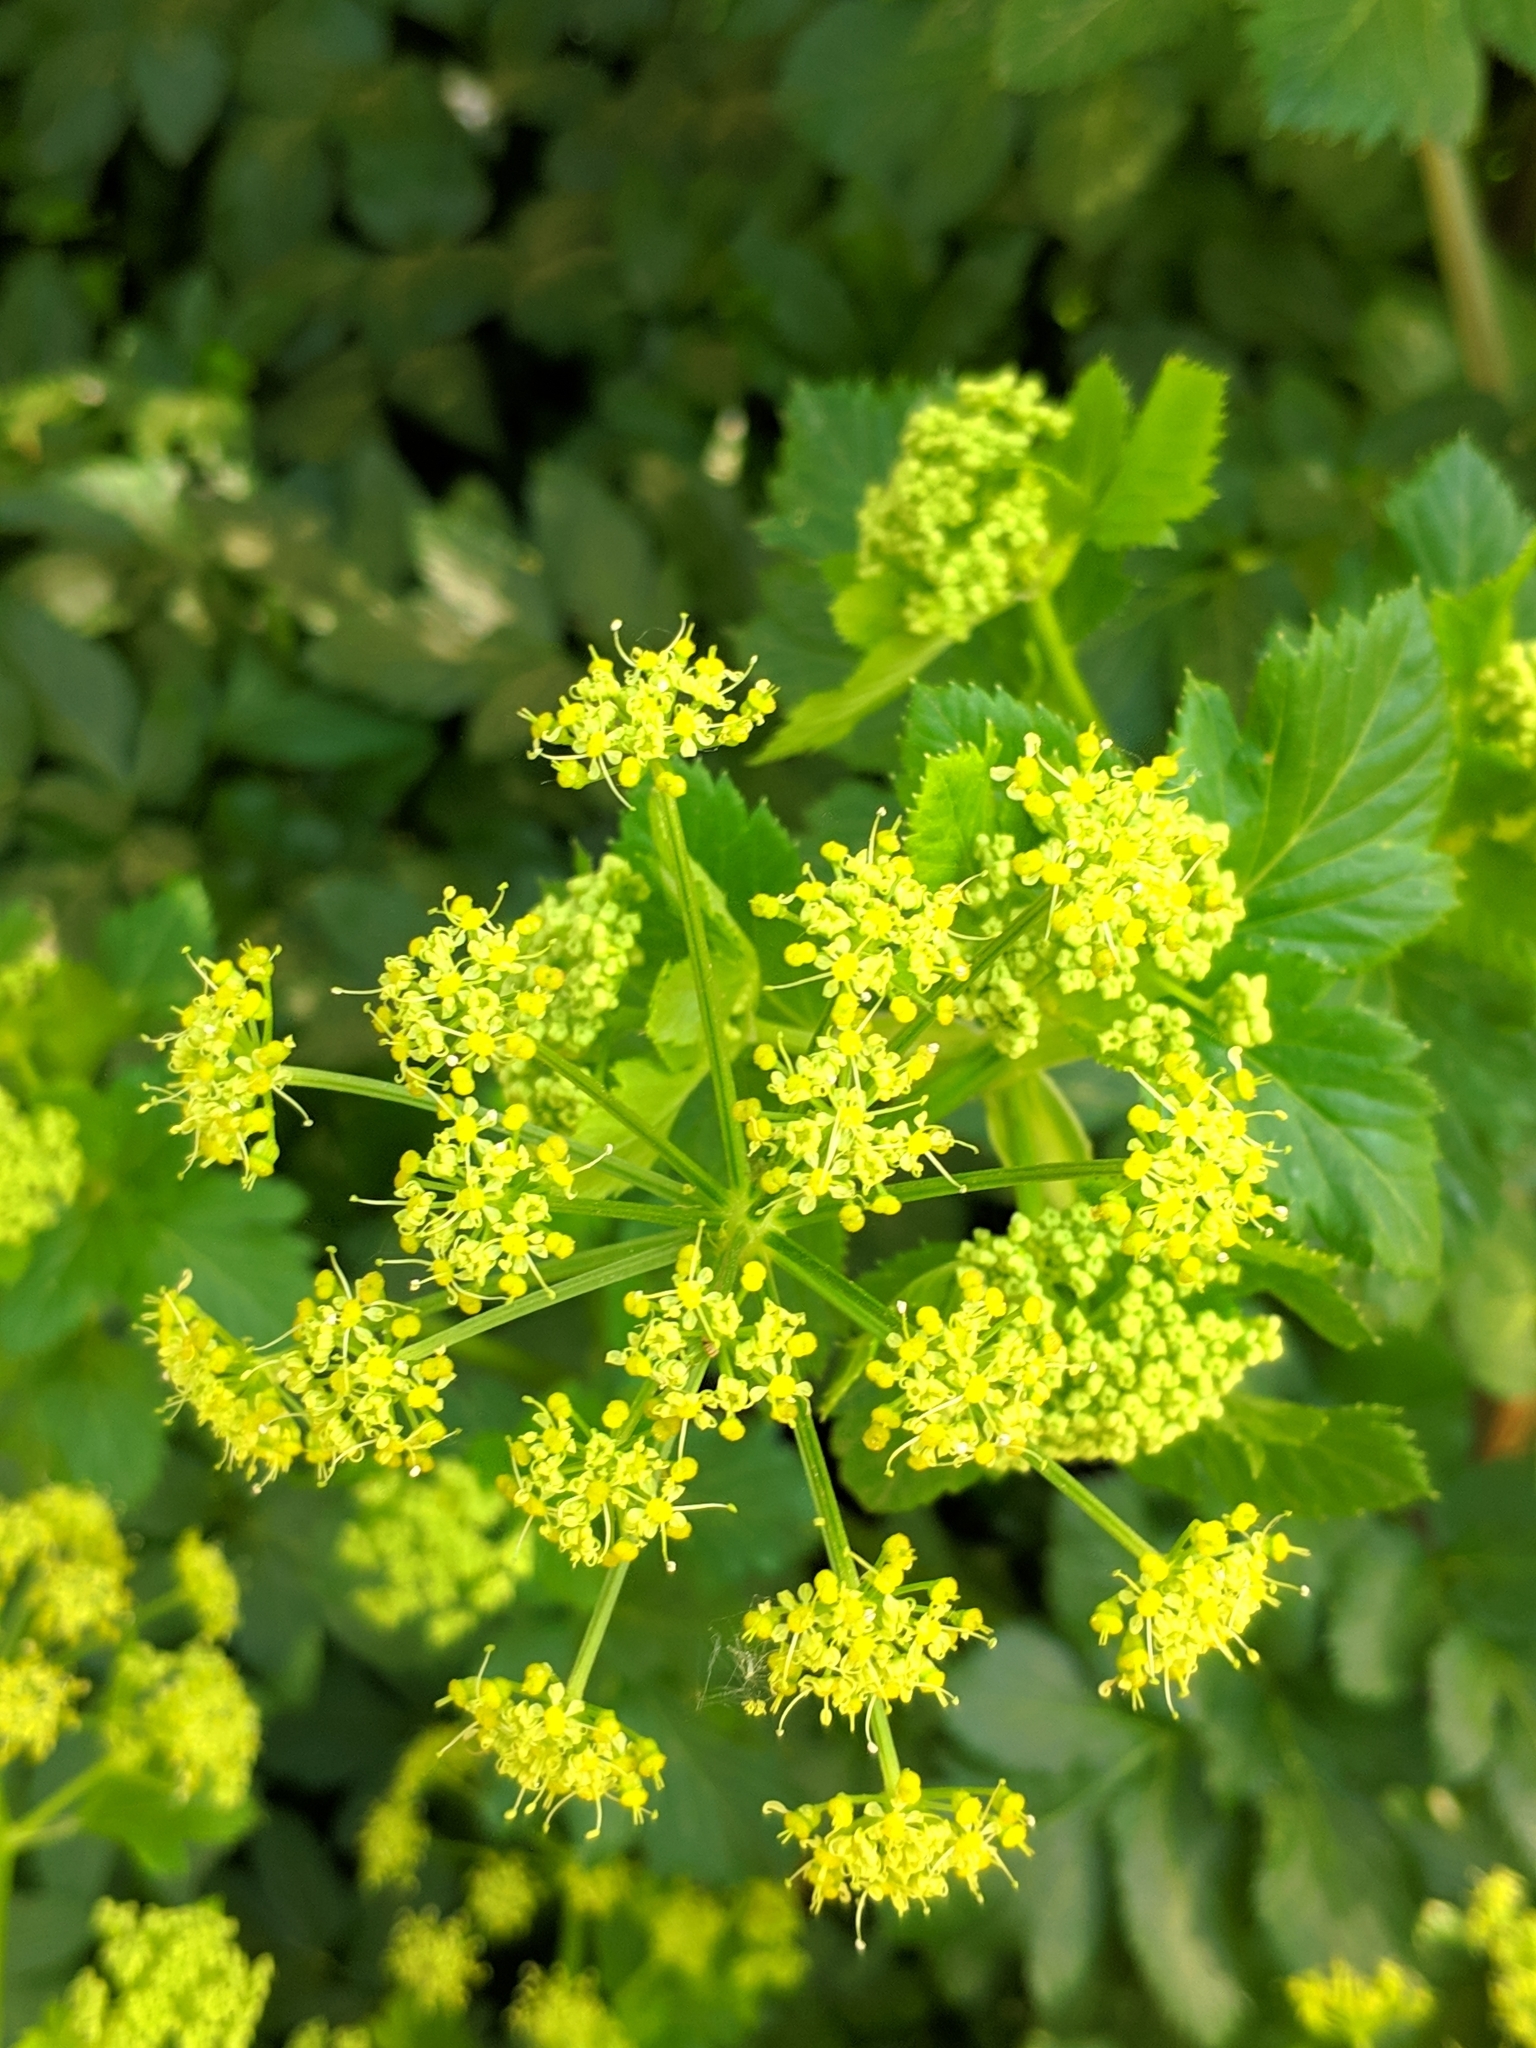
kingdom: Plantae
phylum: Tracheophyta
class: Magnoliopsida
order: Apiales
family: Apiaceae
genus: Smyrnium
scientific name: Smyrnium olusatrum
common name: Alexanders
